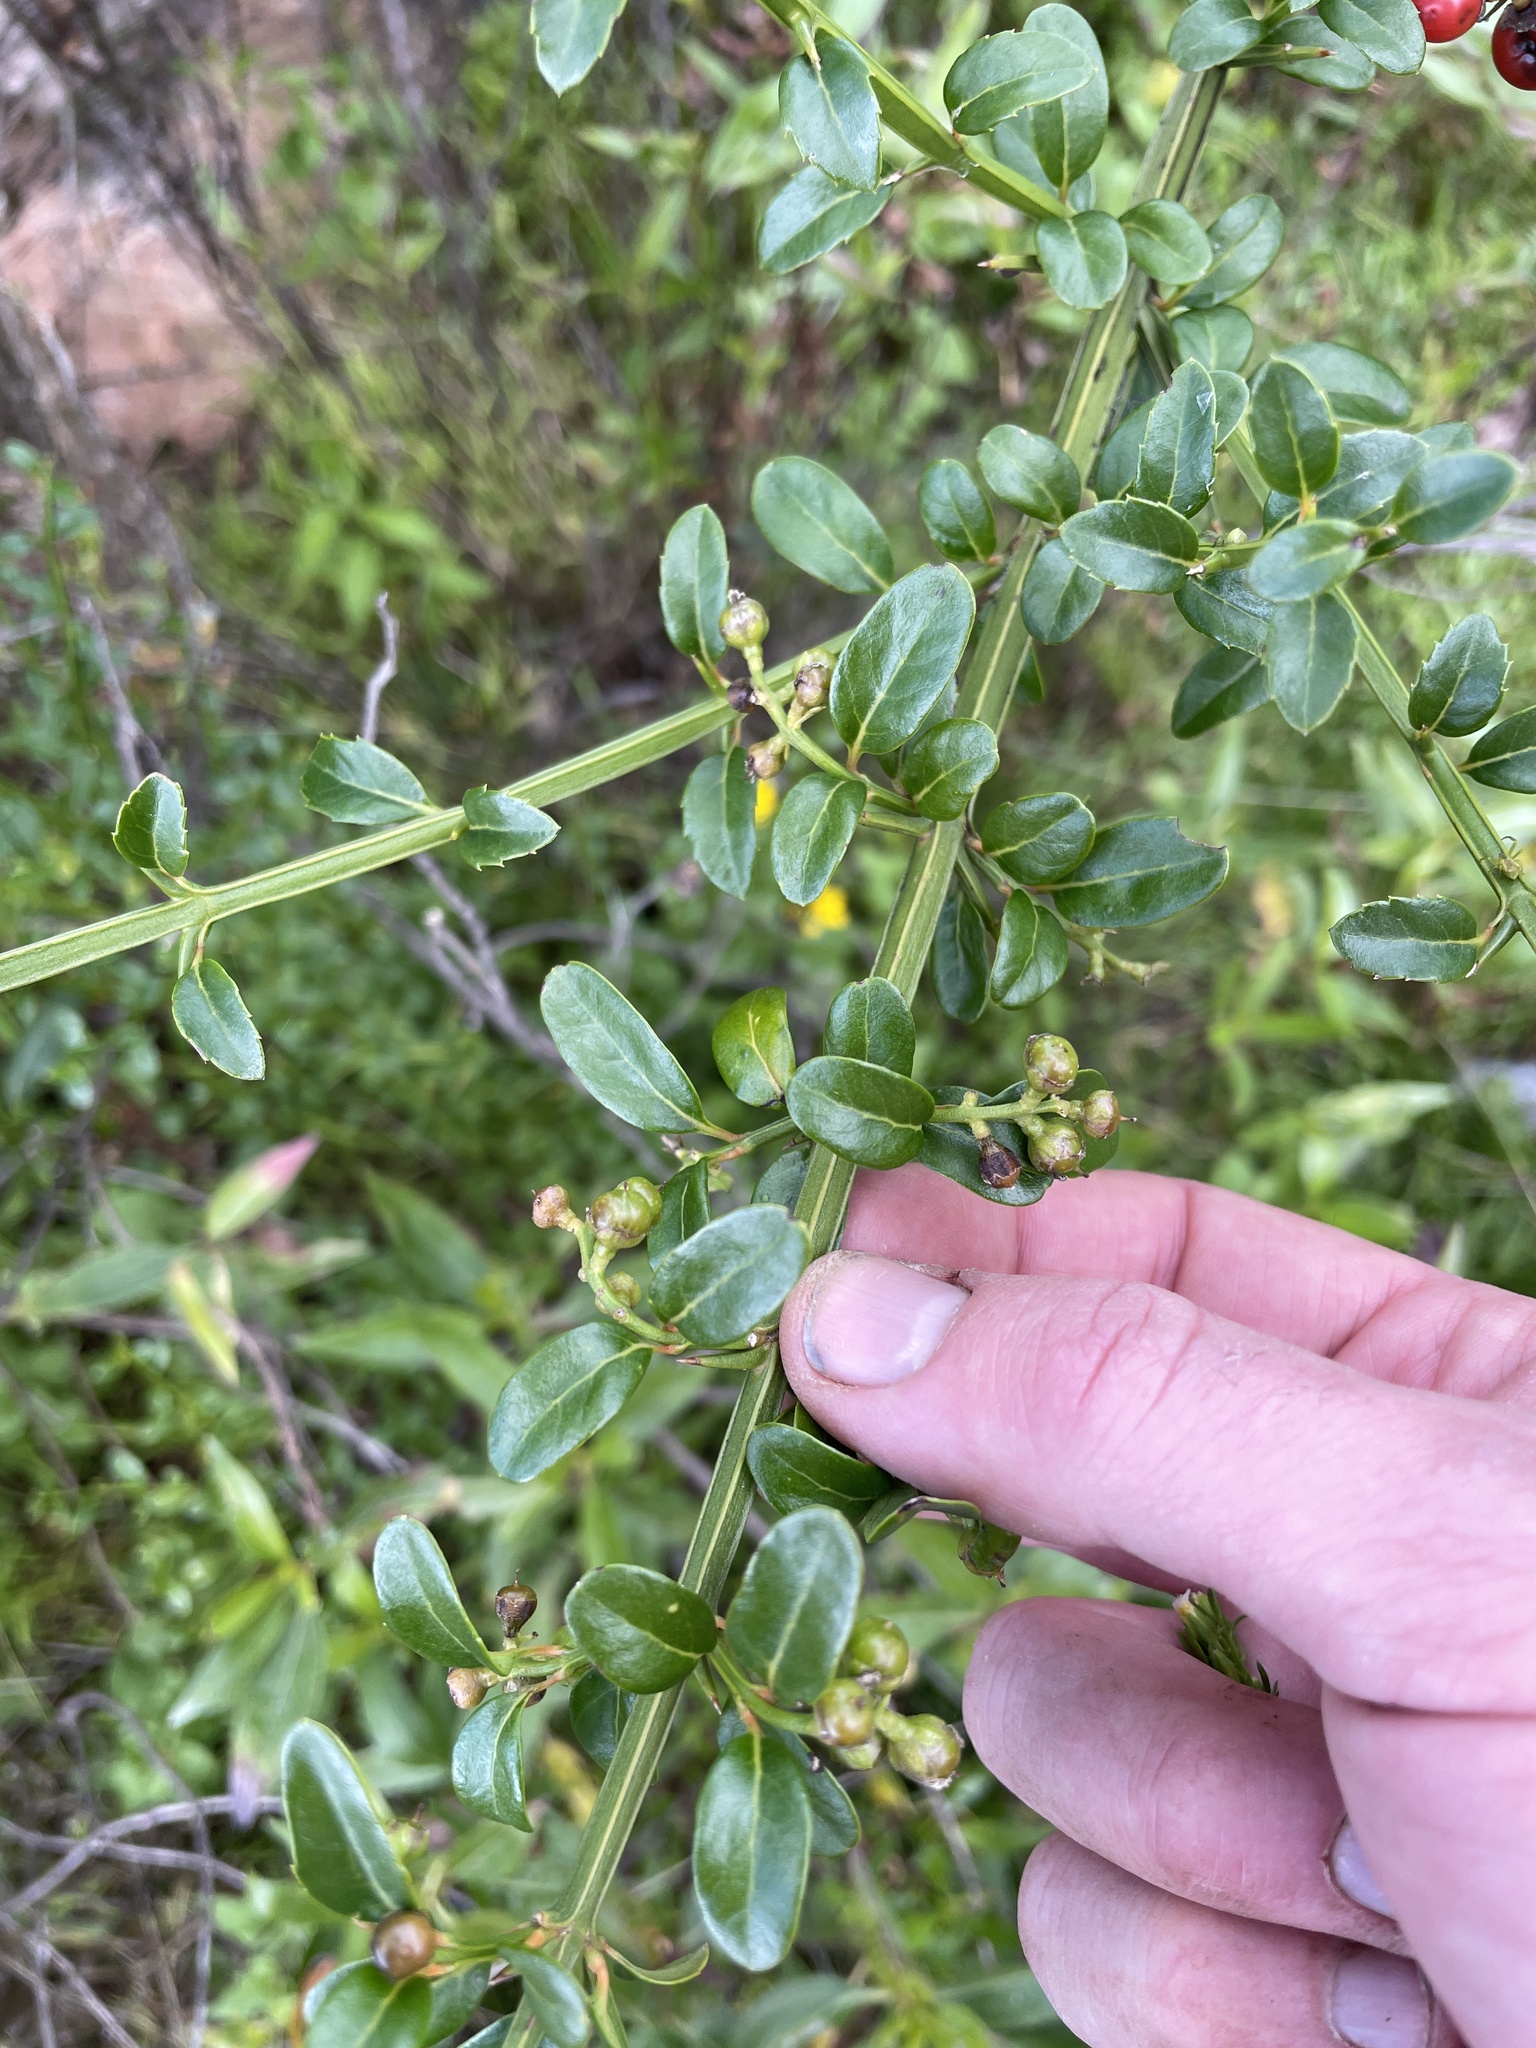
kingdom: Plantae
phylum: Tracheophyta
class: Magnoliopsida
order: Lamiales
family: Verbenaceae
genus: Citharexylum
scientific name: Citharexylum herrerae
